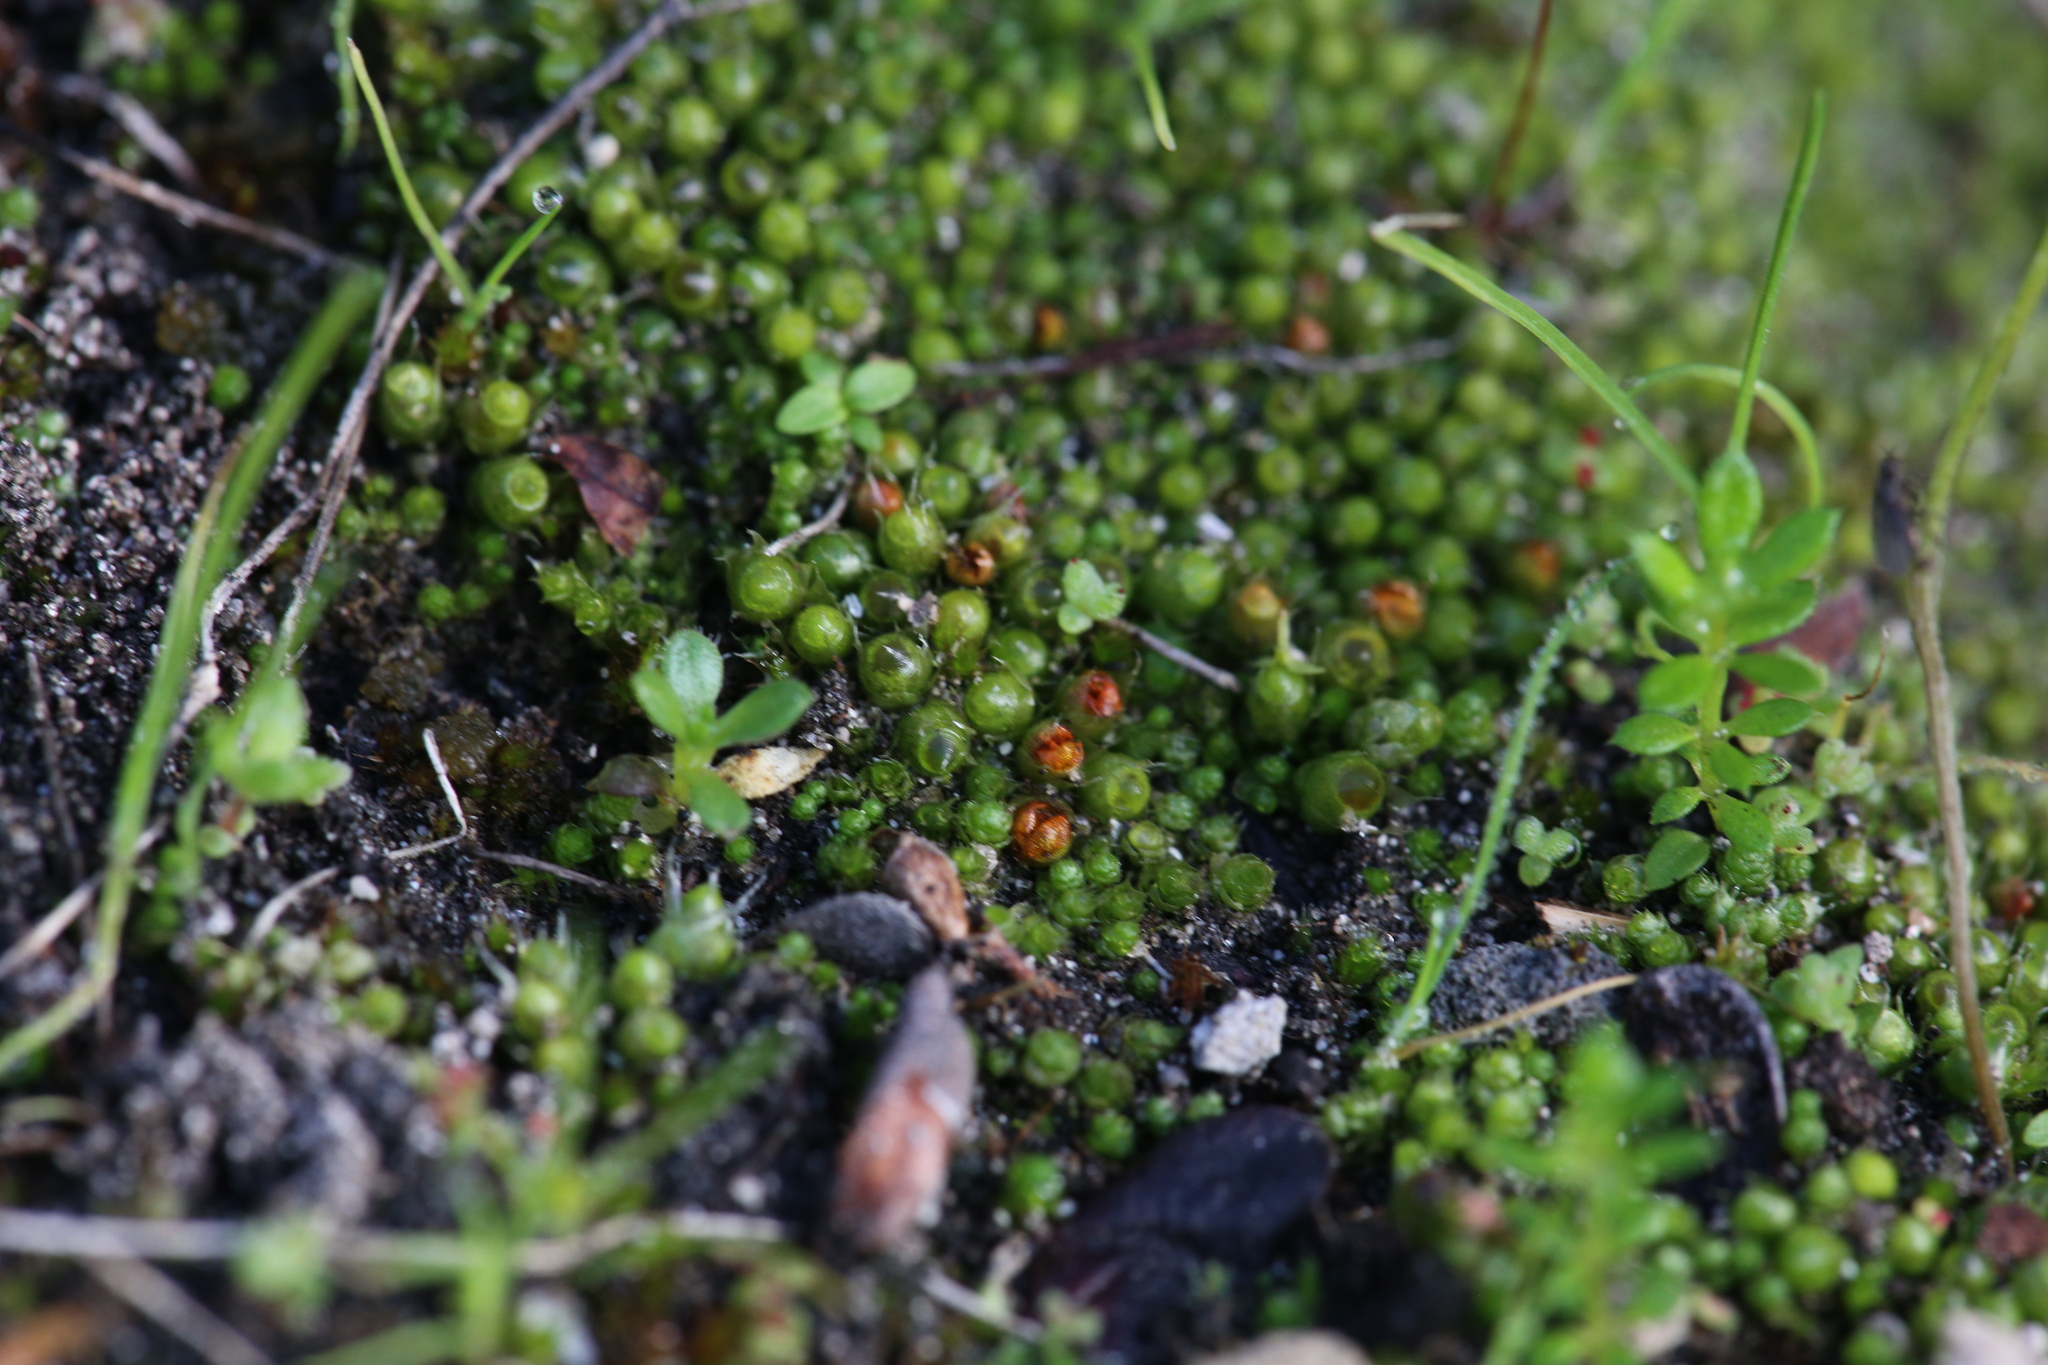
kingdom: Plantae
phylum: Bryophyta
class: Bryopsida
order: Gigaspermales
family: Gigaspermaceae
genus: Gigaspermum
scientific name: Gigaspermum repens
